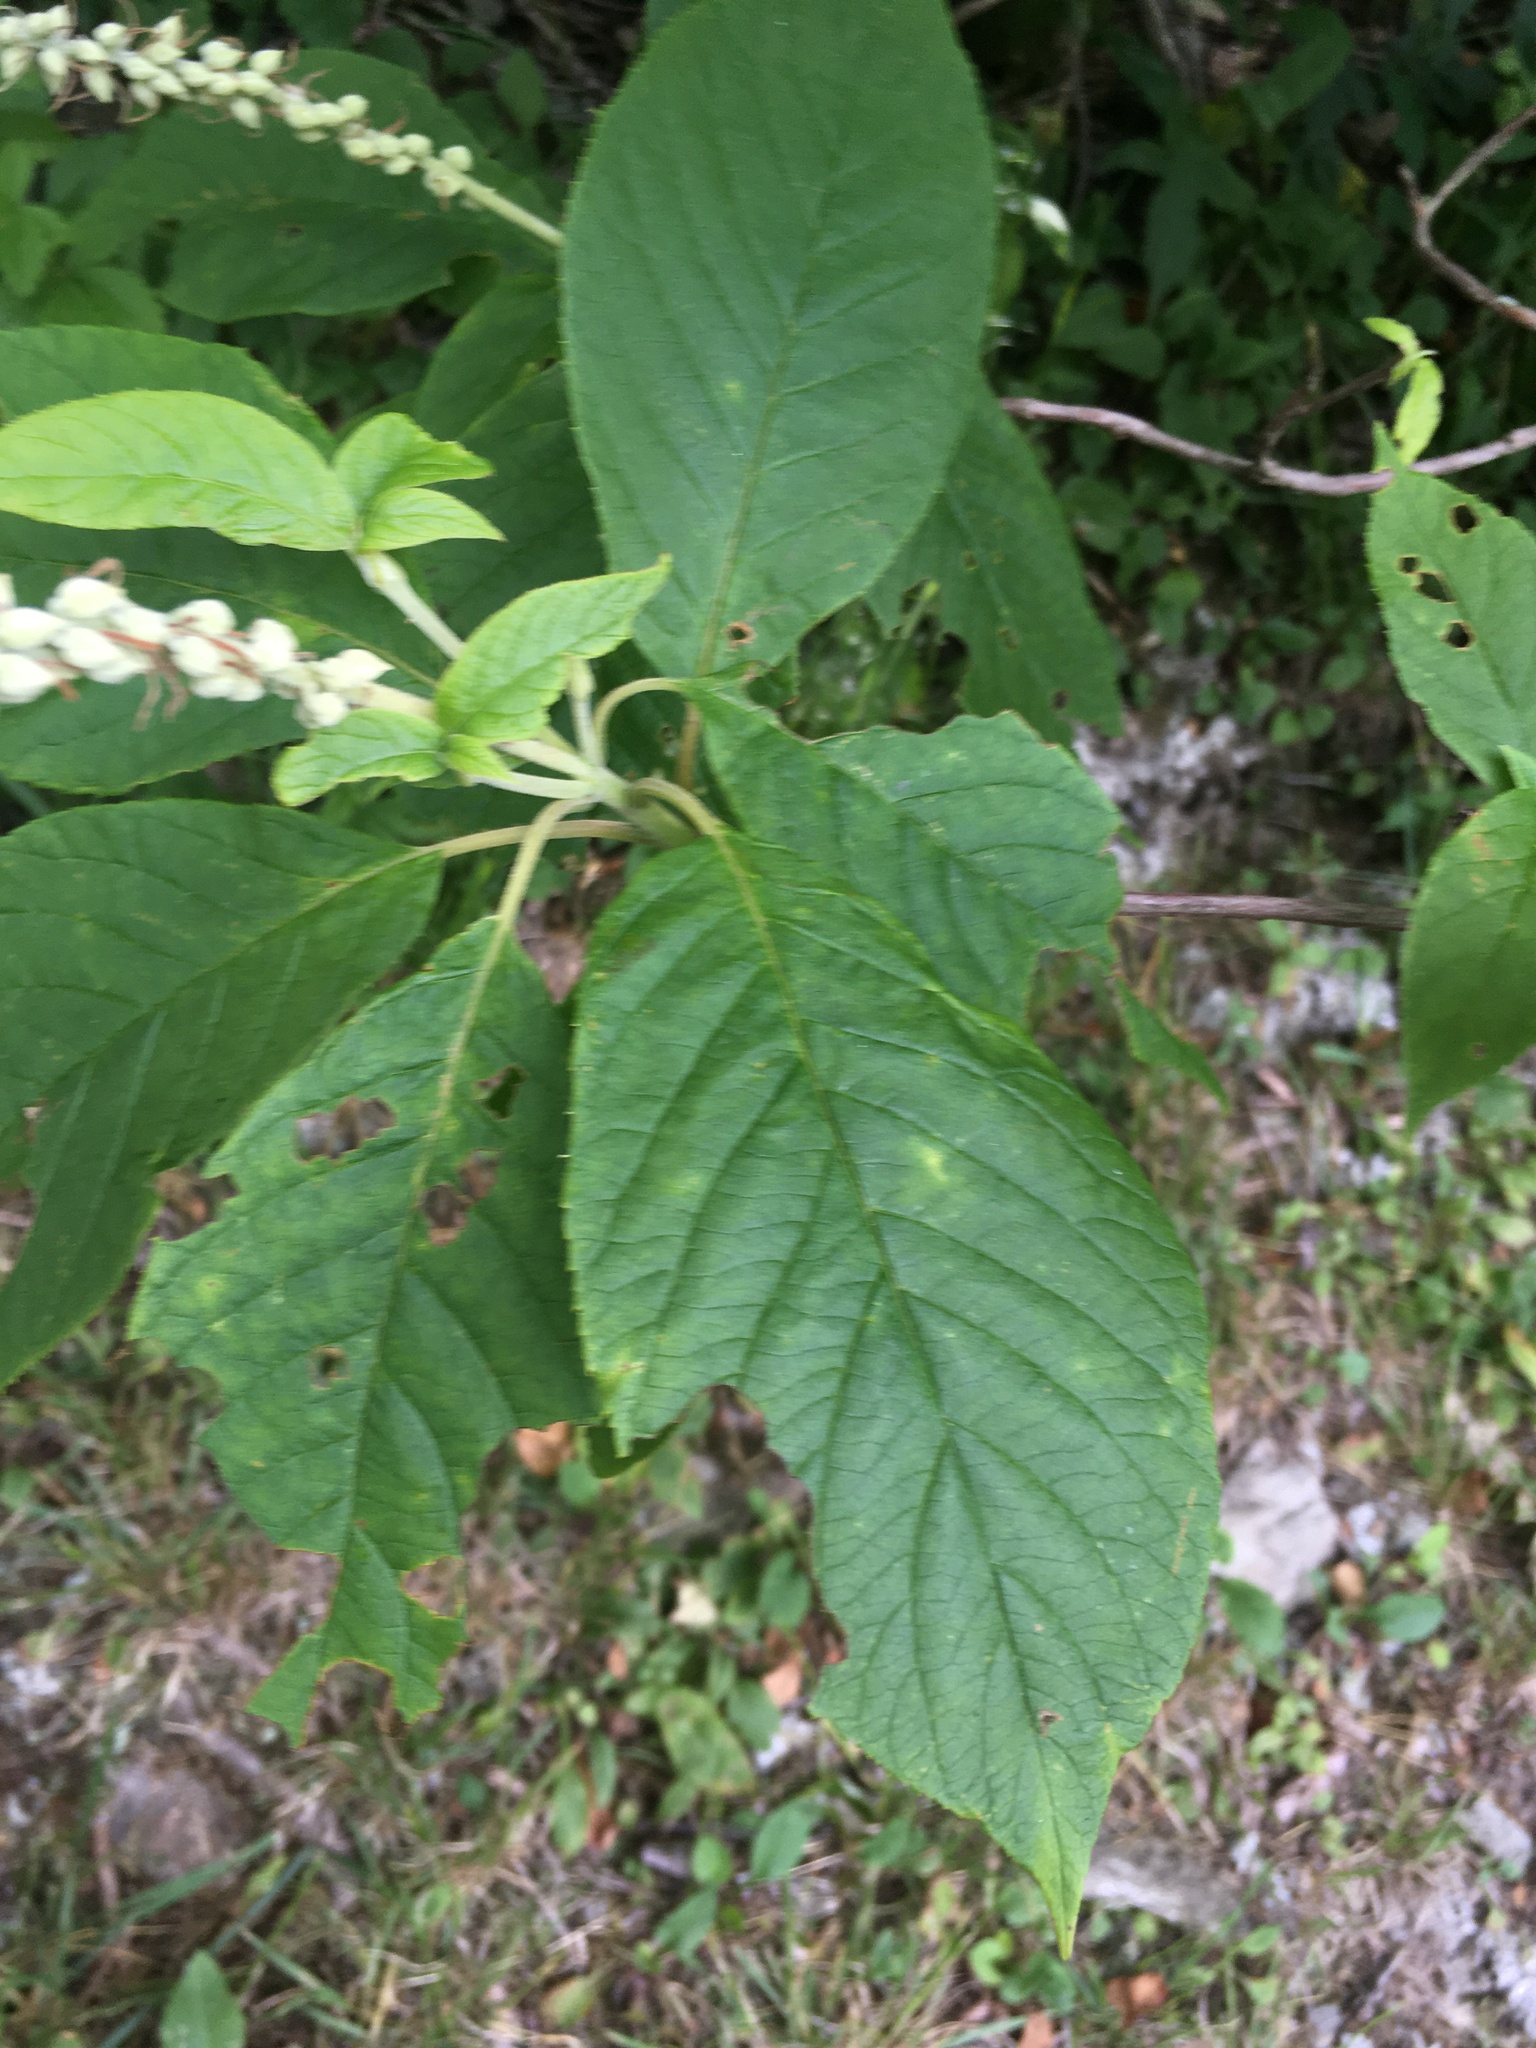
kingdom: Plantae
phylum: Tracheophyta
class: Magnoliopsida
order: Ericales
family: Clethraceae
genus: Clethra
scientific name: Clethra acuminata
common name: Mountain sweet pepperbush
